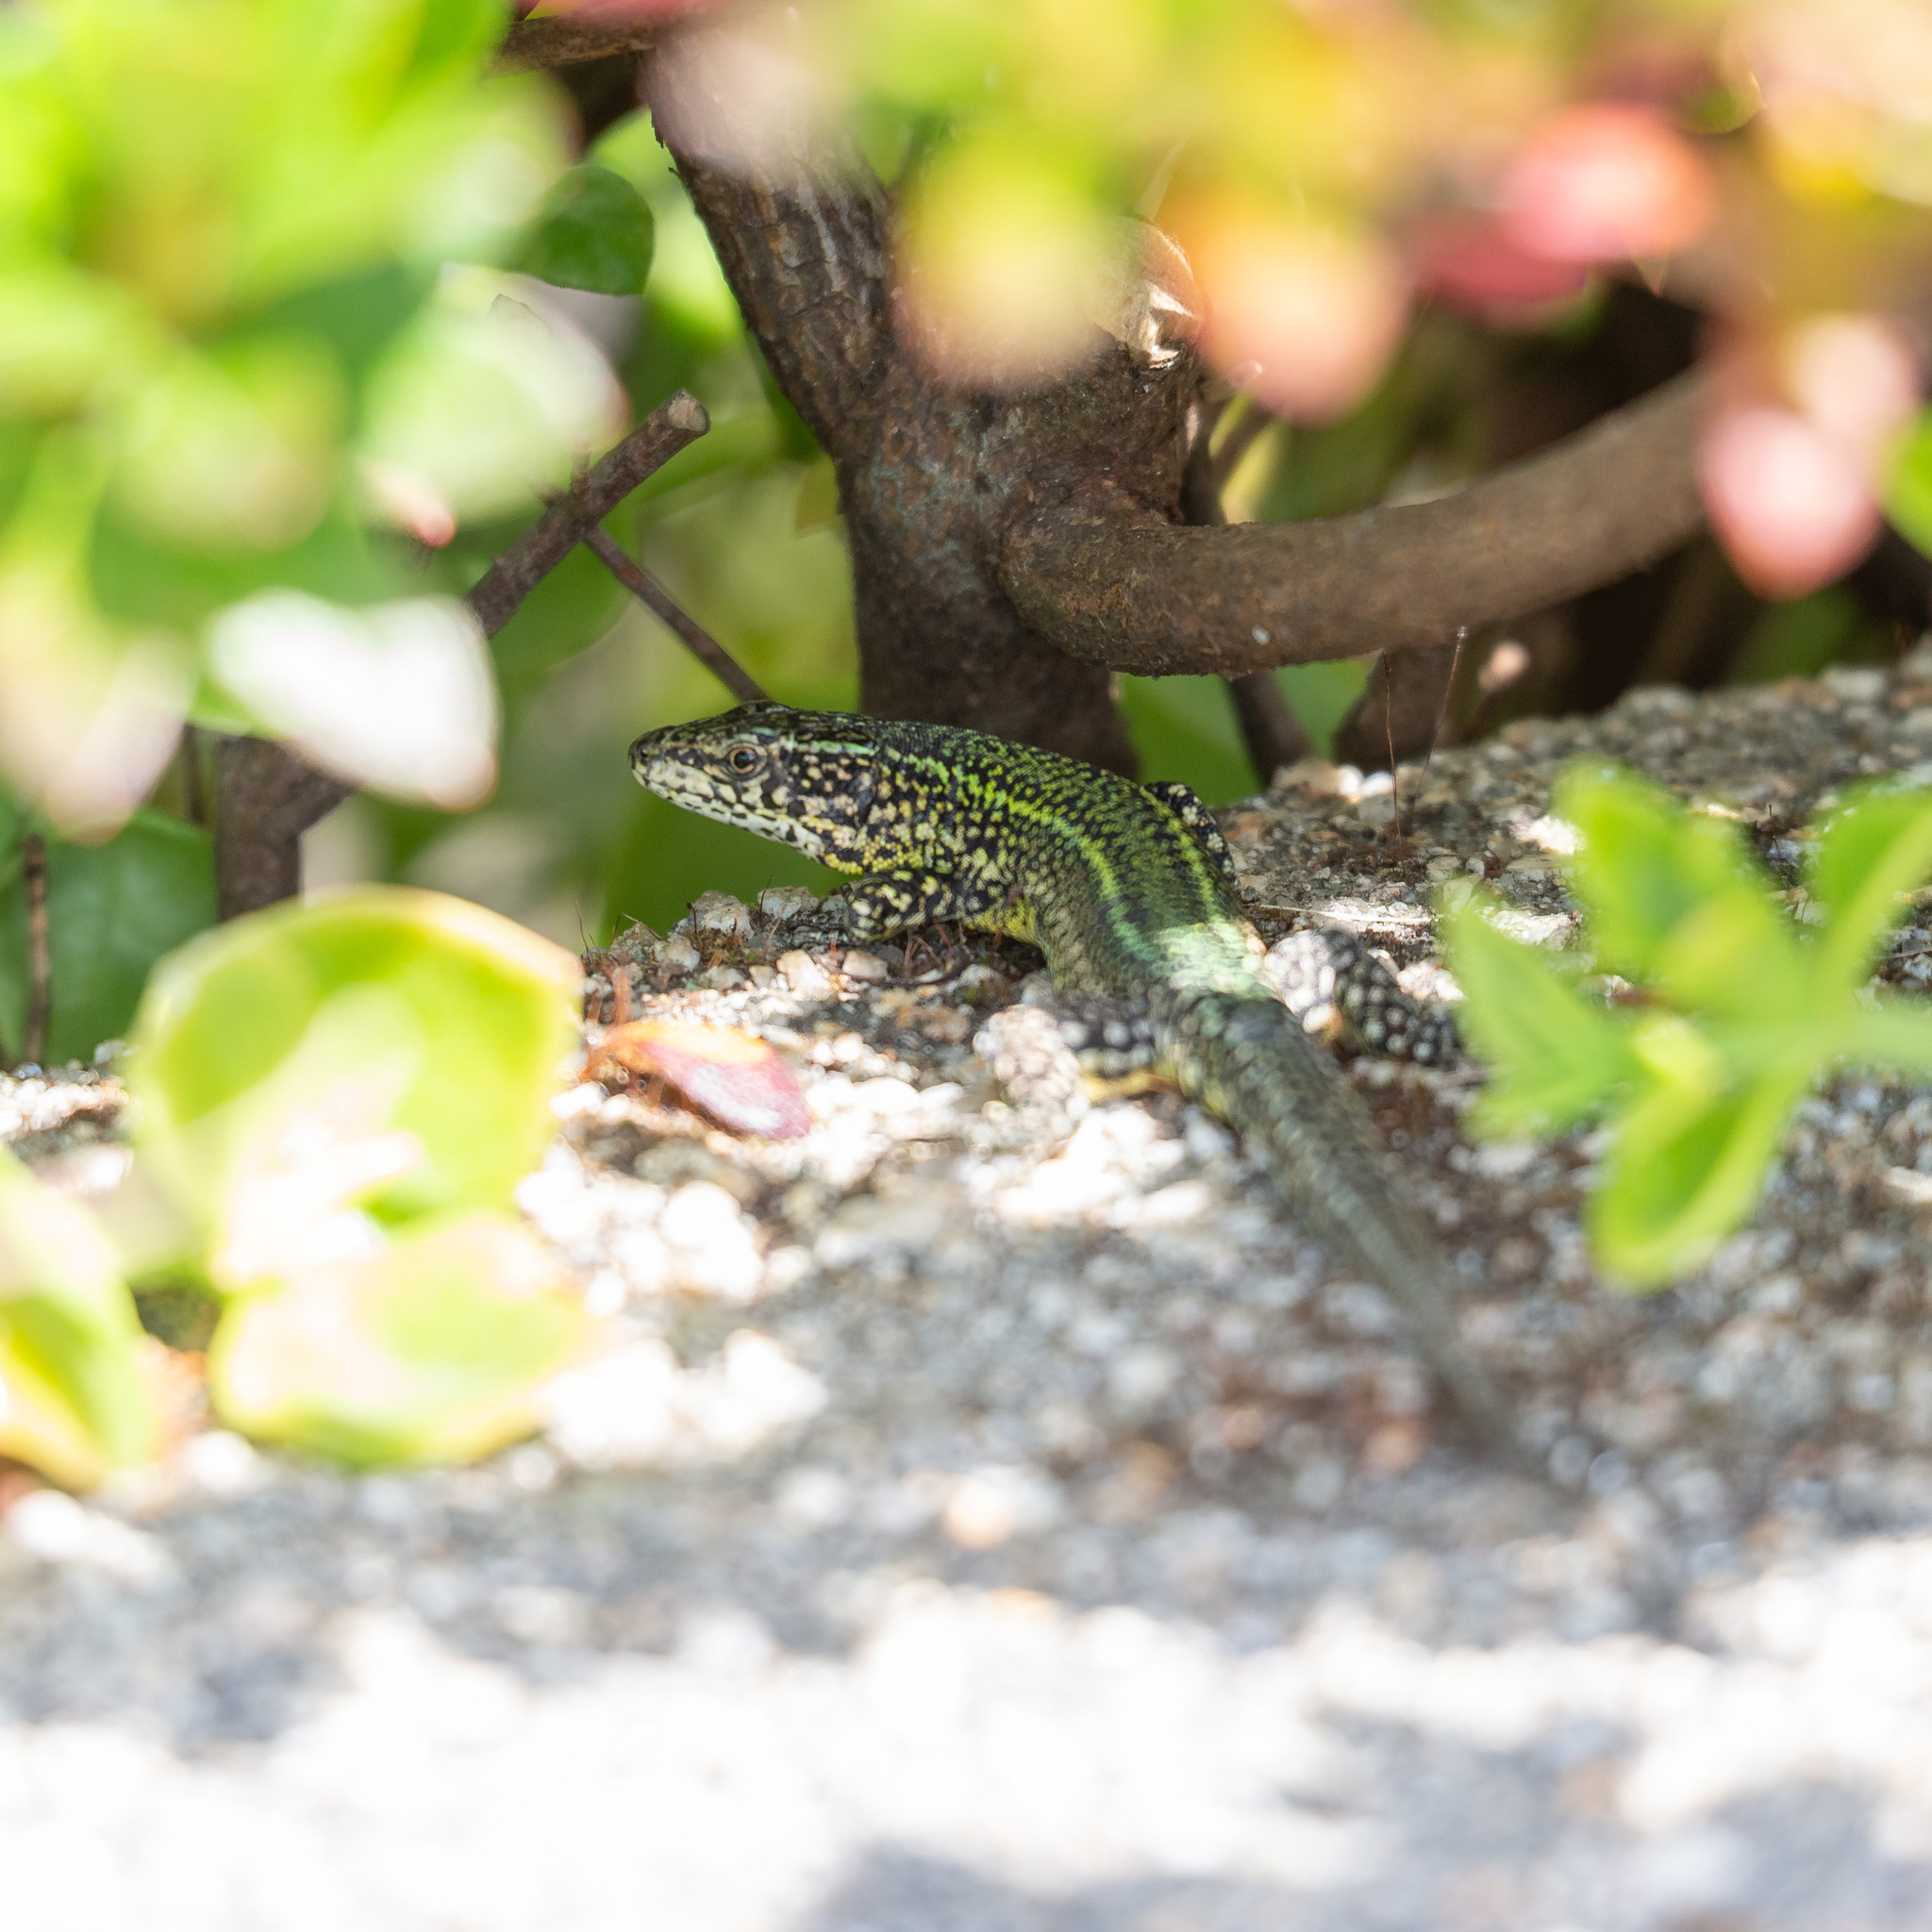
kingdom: Animalia
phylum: Chordata
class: Squamata
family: Lacertidae
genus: Podarcis
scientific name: Podarcis bocagei
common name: Bocage's wall lizard
